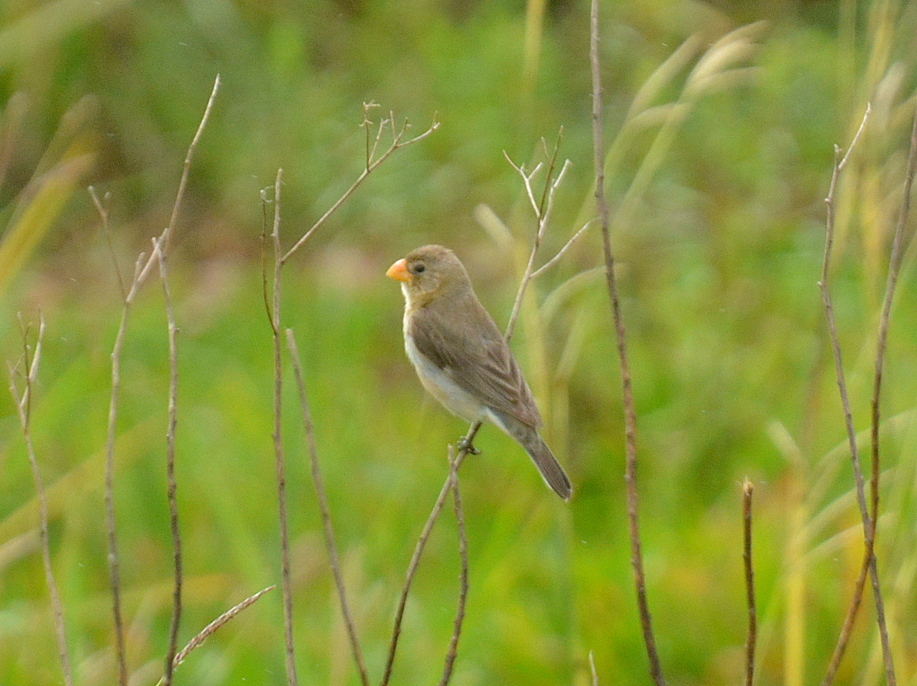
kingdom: Animalia
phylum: Chordata
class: Aves
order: Passeriformes
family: Thraupidae
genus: Sporophila
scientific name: Sporophila beltoni
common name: Tropeiro seedeater
